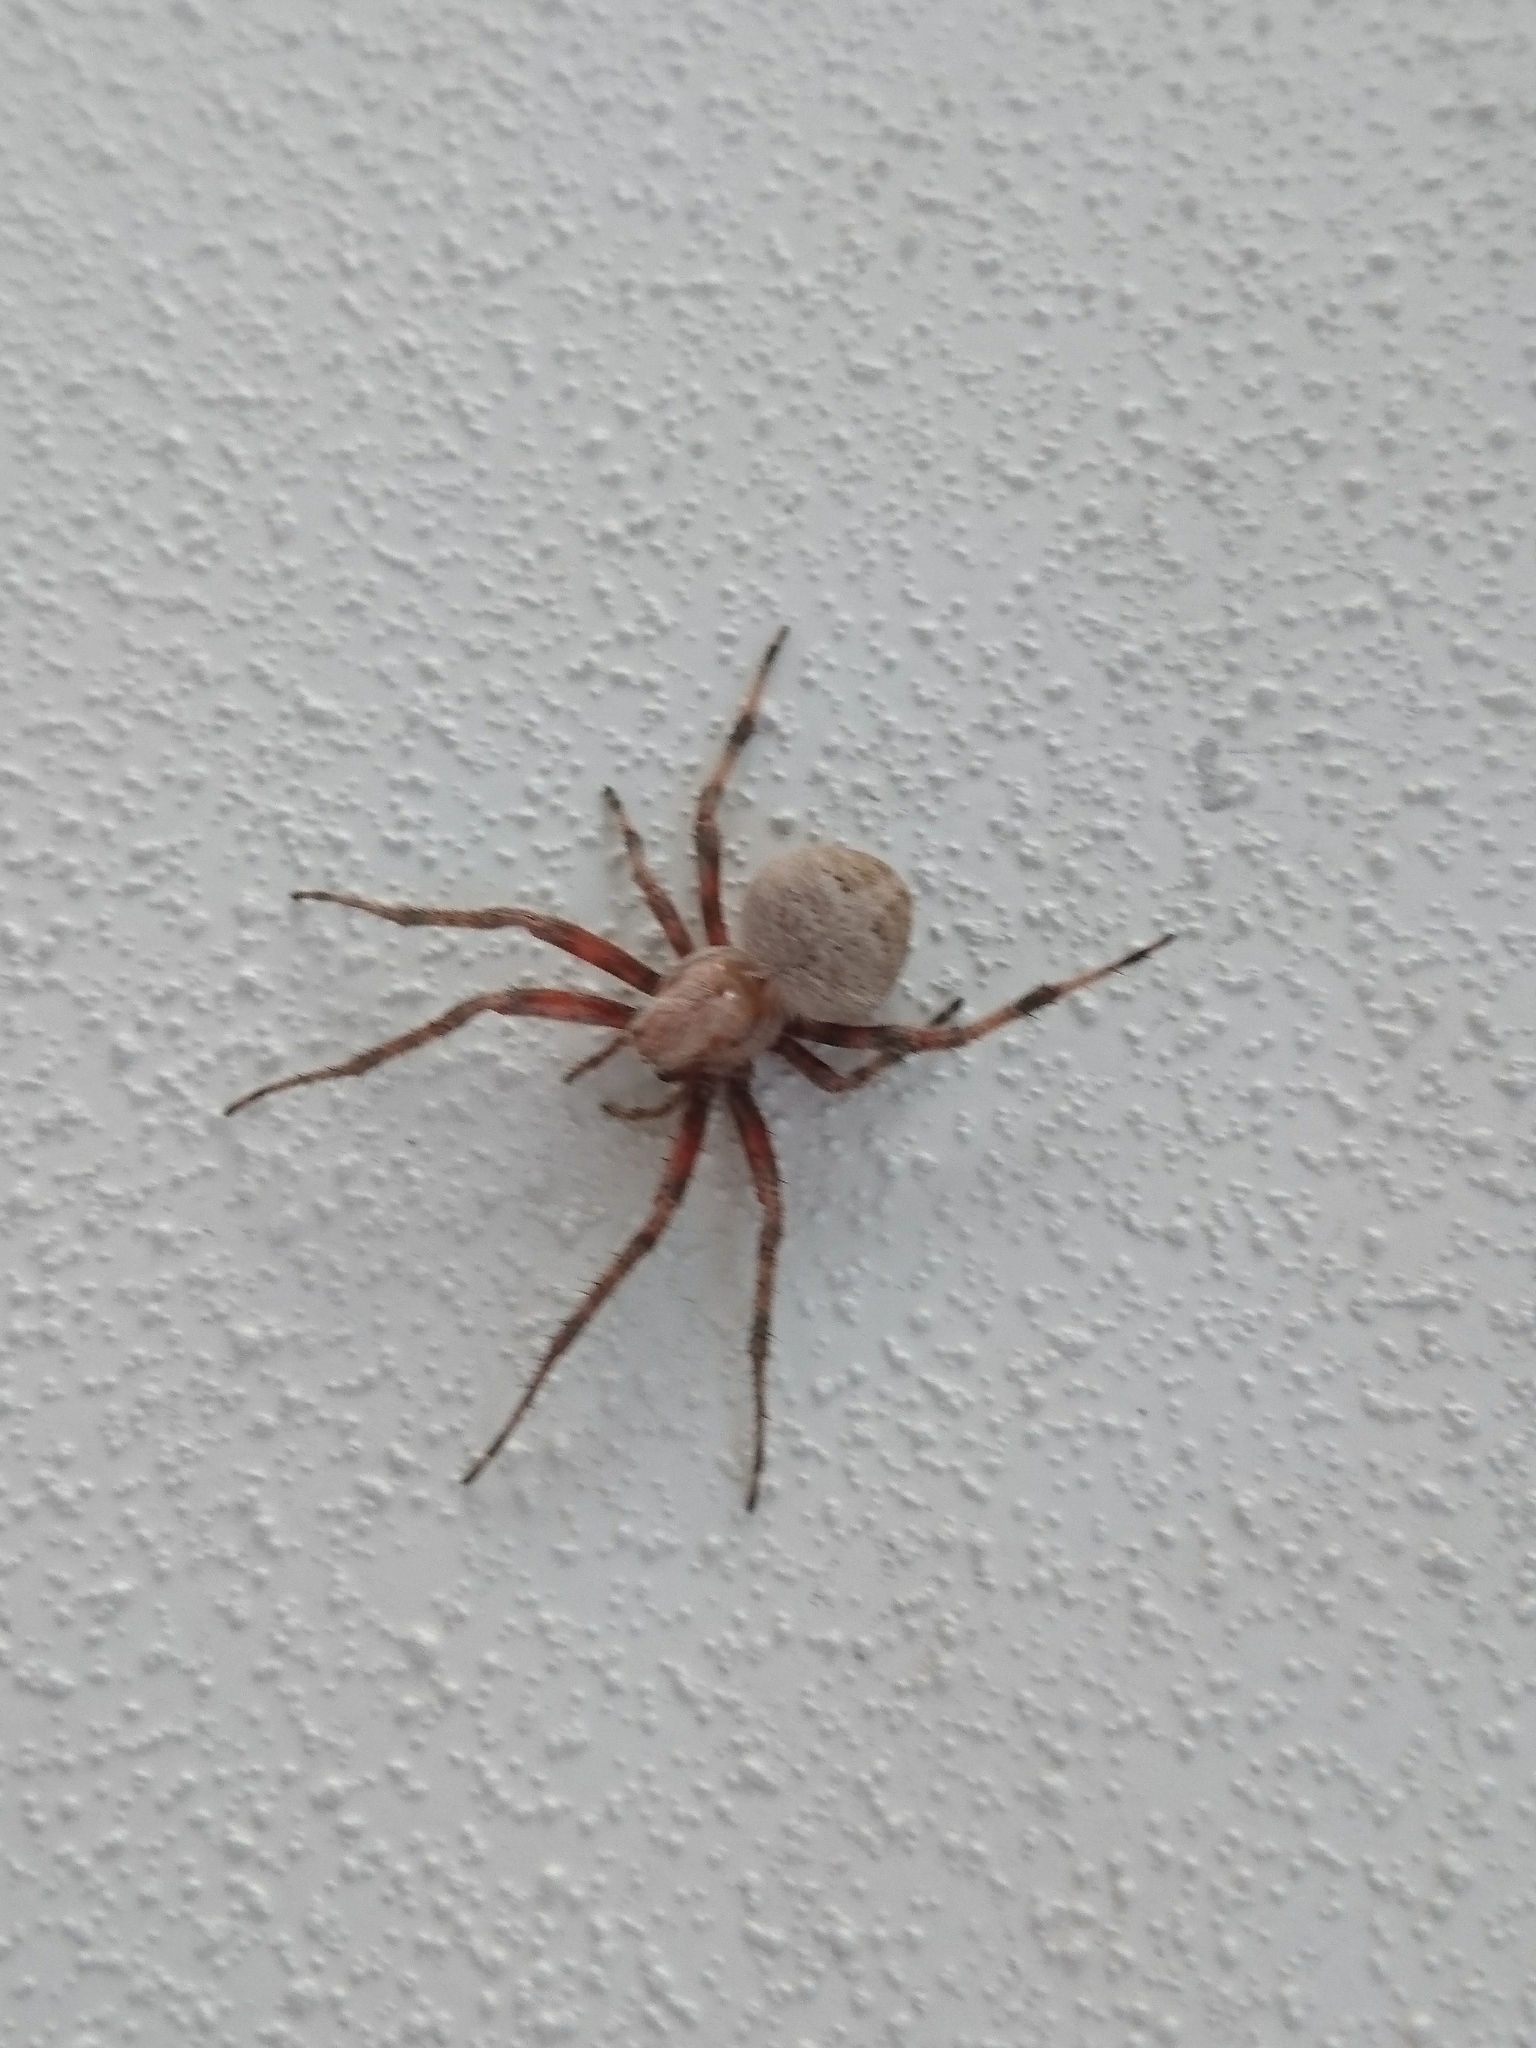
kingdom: Animalia
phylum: Arthropoda
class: Arachnida
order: Araneae
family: Araneidae
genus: Neoscona
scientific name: Neoscona crucifera
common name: Spotted orbweaver
